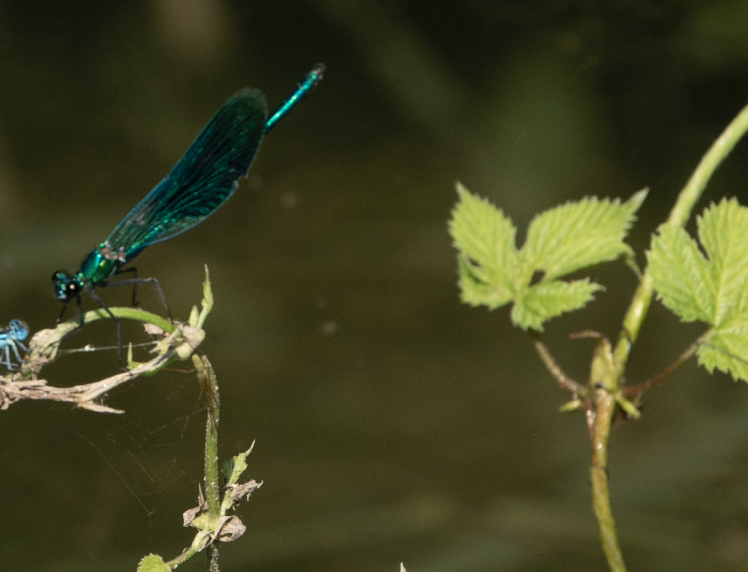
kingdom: Animalia
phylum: Arthropoda
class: Insecta
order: Odonata
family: Calopterygidae
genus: Calopteryx
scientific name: Calopteryx splendens
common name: Banded demoiselle
